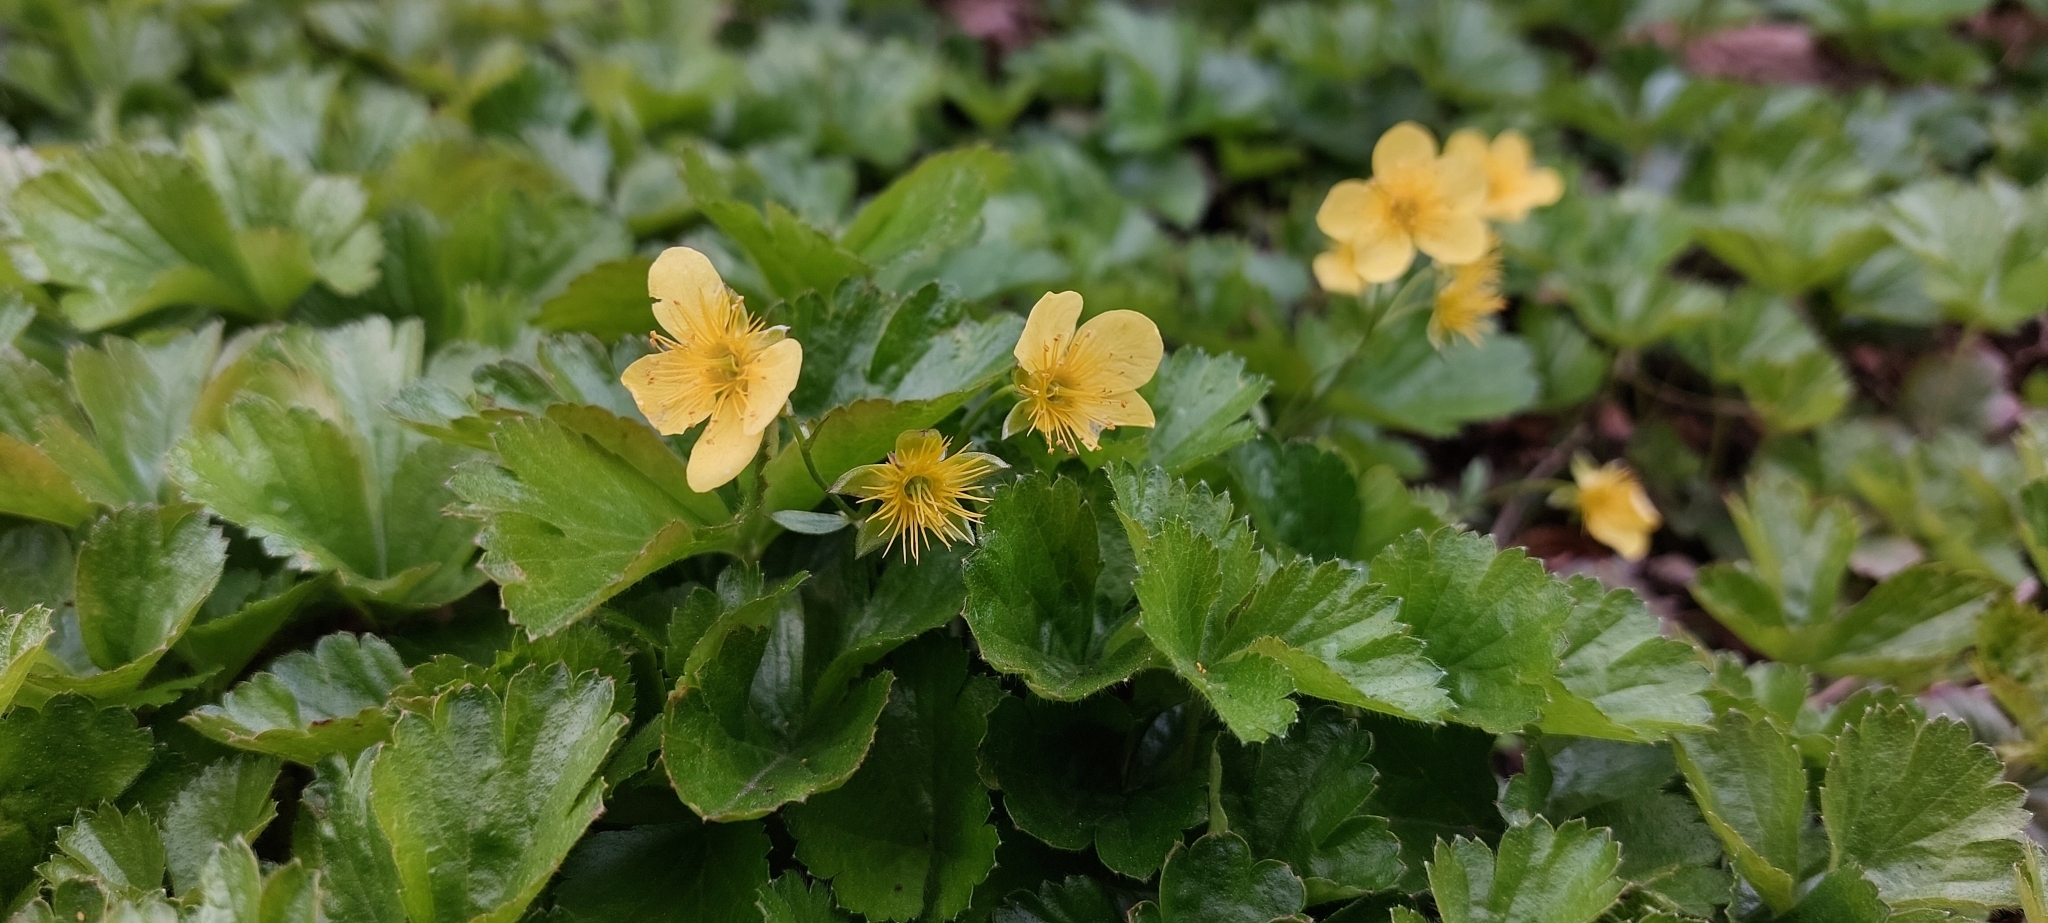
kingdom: Plantae
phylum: Tracheophyta
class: Magnoliopsida
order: Ranunculales
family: Ranunculaceae
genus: Caltha
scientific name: Caltha palustris
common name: Marsh marigold
